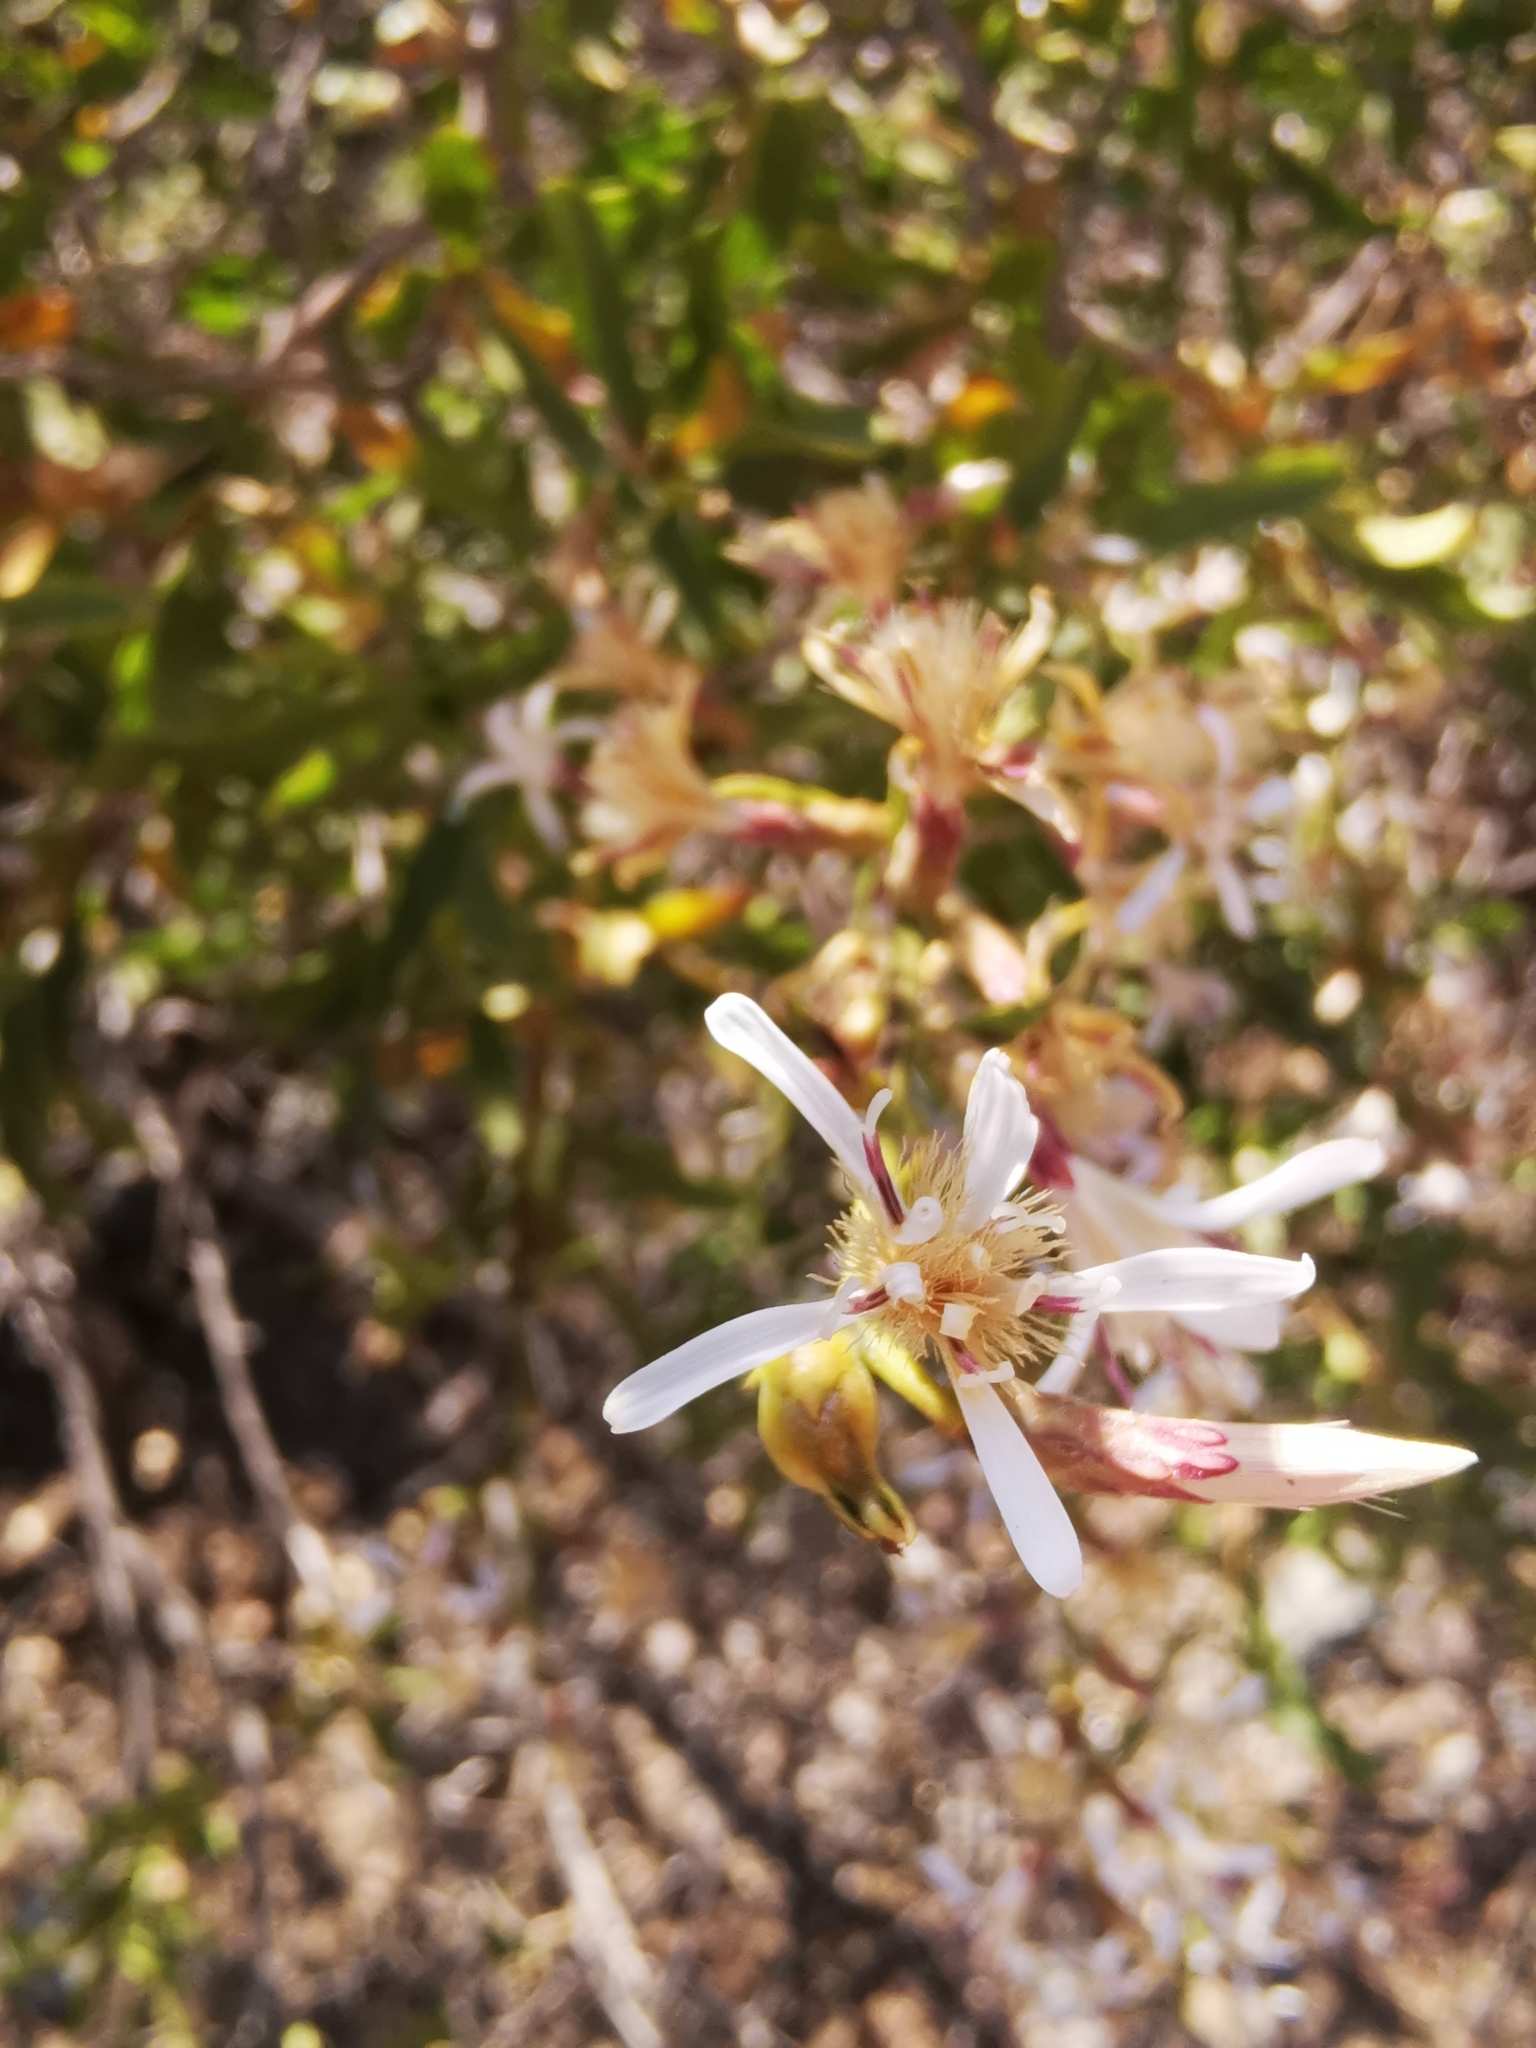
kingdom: Plantae
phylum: Tracheophyta
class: Magnoliopsida
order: Asterales
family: Asteraceae
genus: Proustia
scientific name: Proustia cuneifolia
